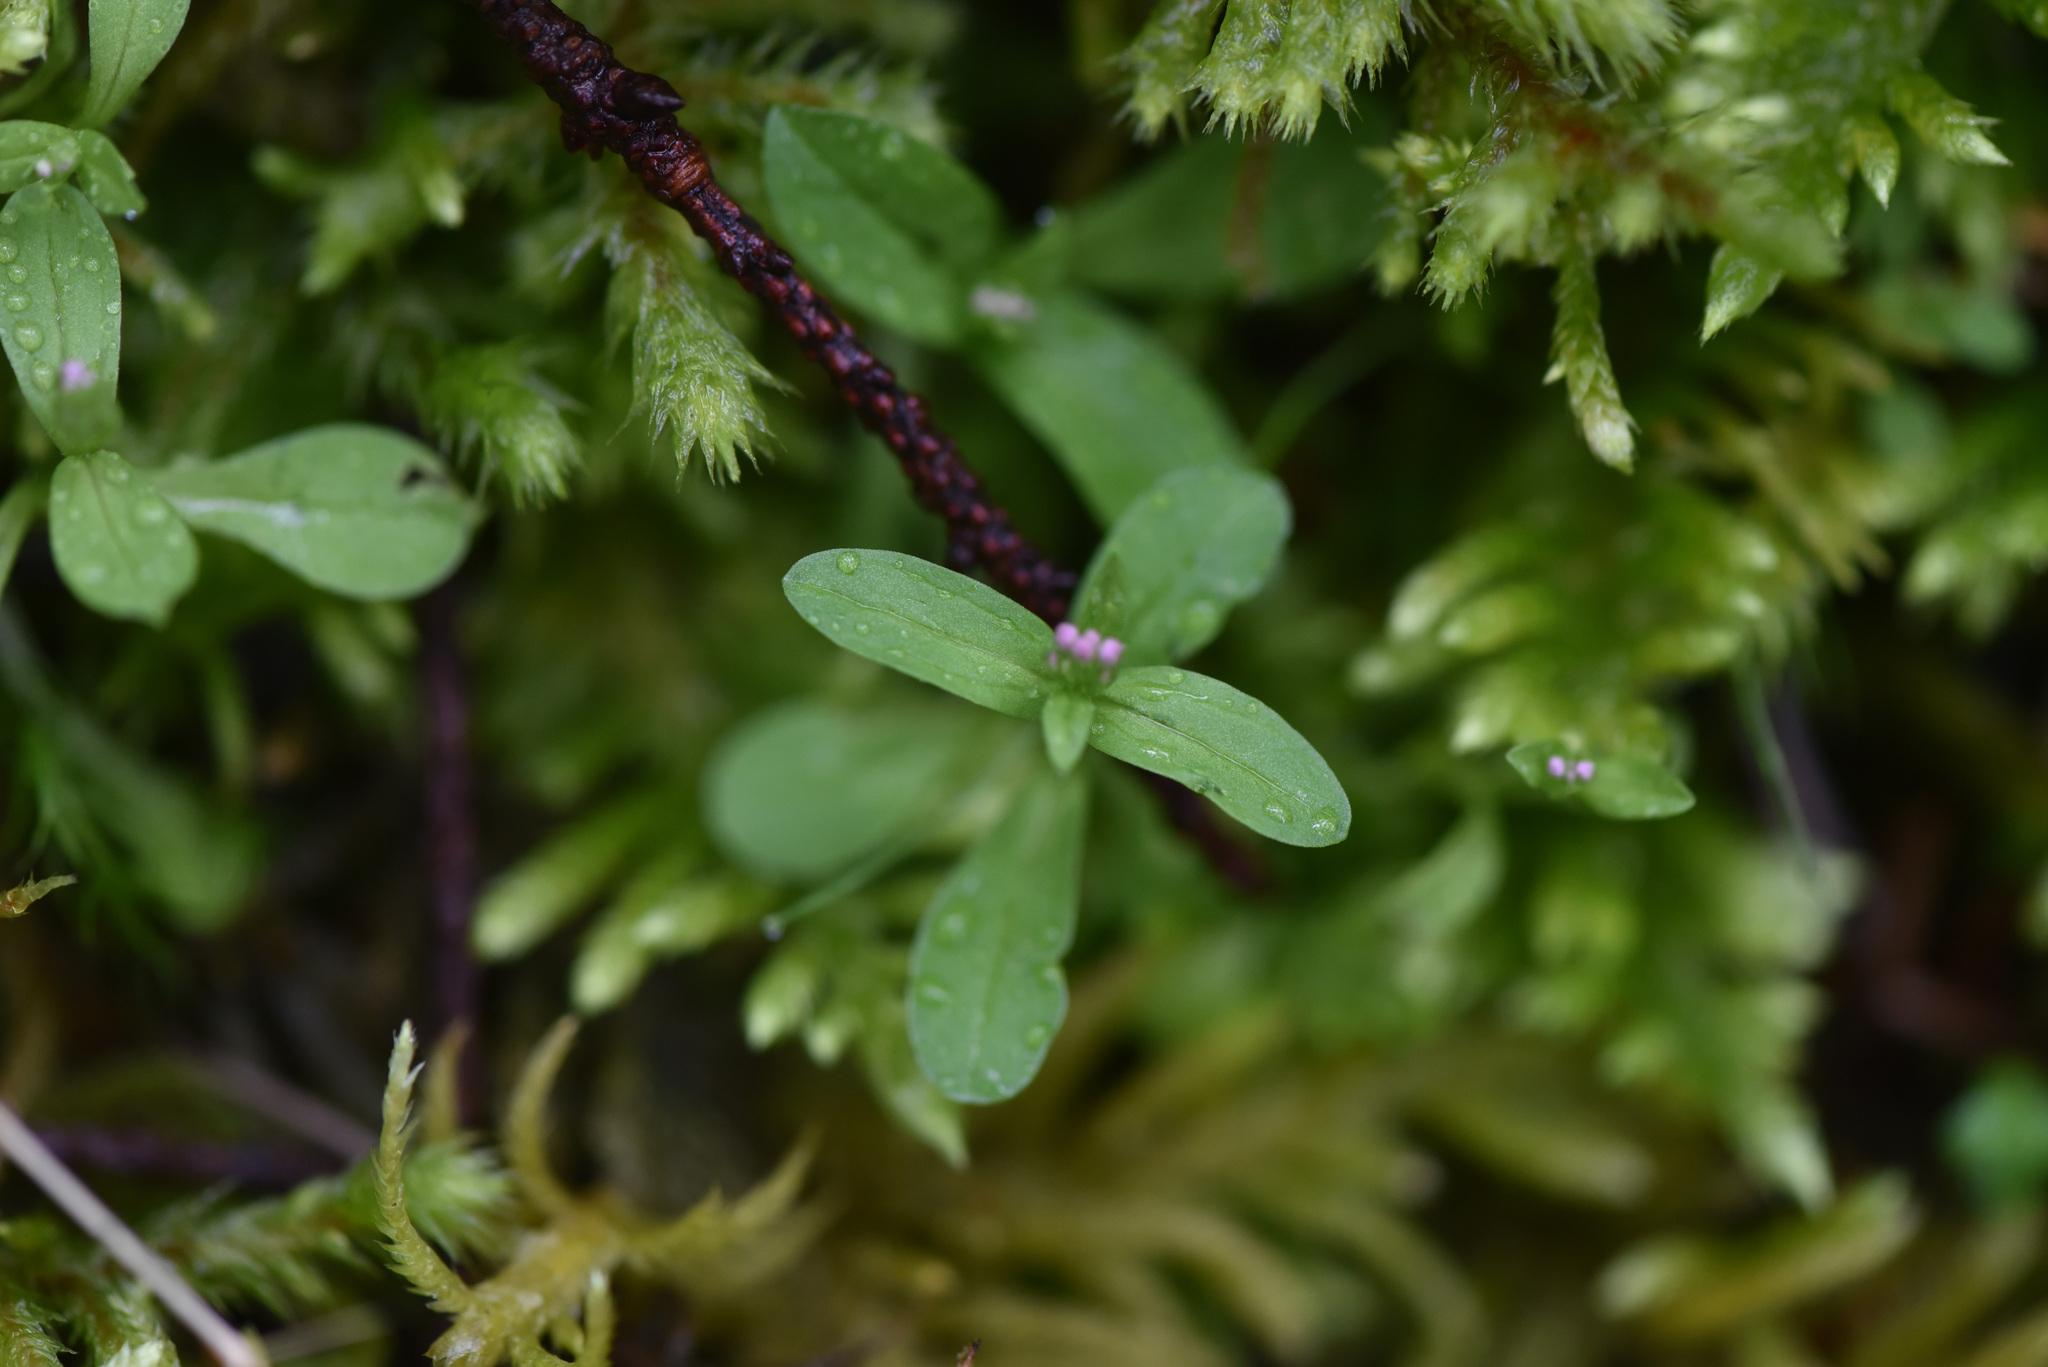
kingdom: Plantae
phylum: Tracheophyta
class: Magnoliopsida
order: Dipsacales
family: Caprifoliaceae
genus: Plectritis
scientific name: Plectritis congesta
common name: Pink plectritis
